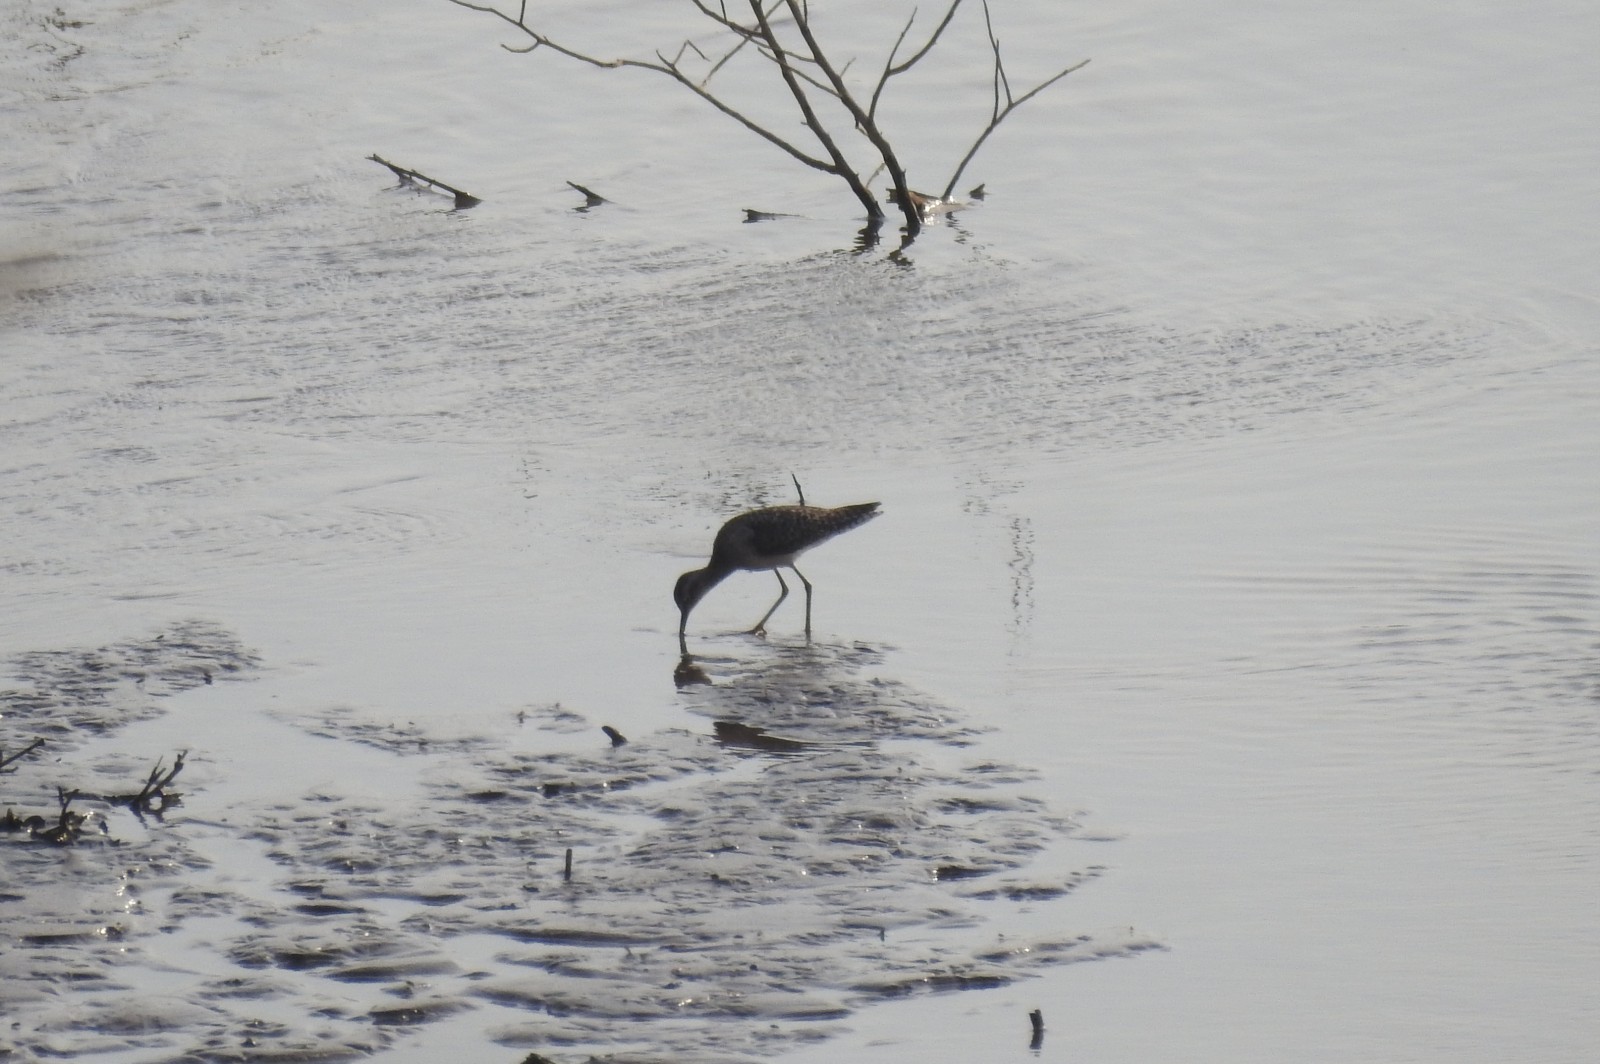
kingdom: Animalia
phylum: Chordata
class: Aves
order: Charadriiformes
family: Scolopacidae
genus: Tringa
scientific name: Tringa glareola
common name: Wood sandpiper
